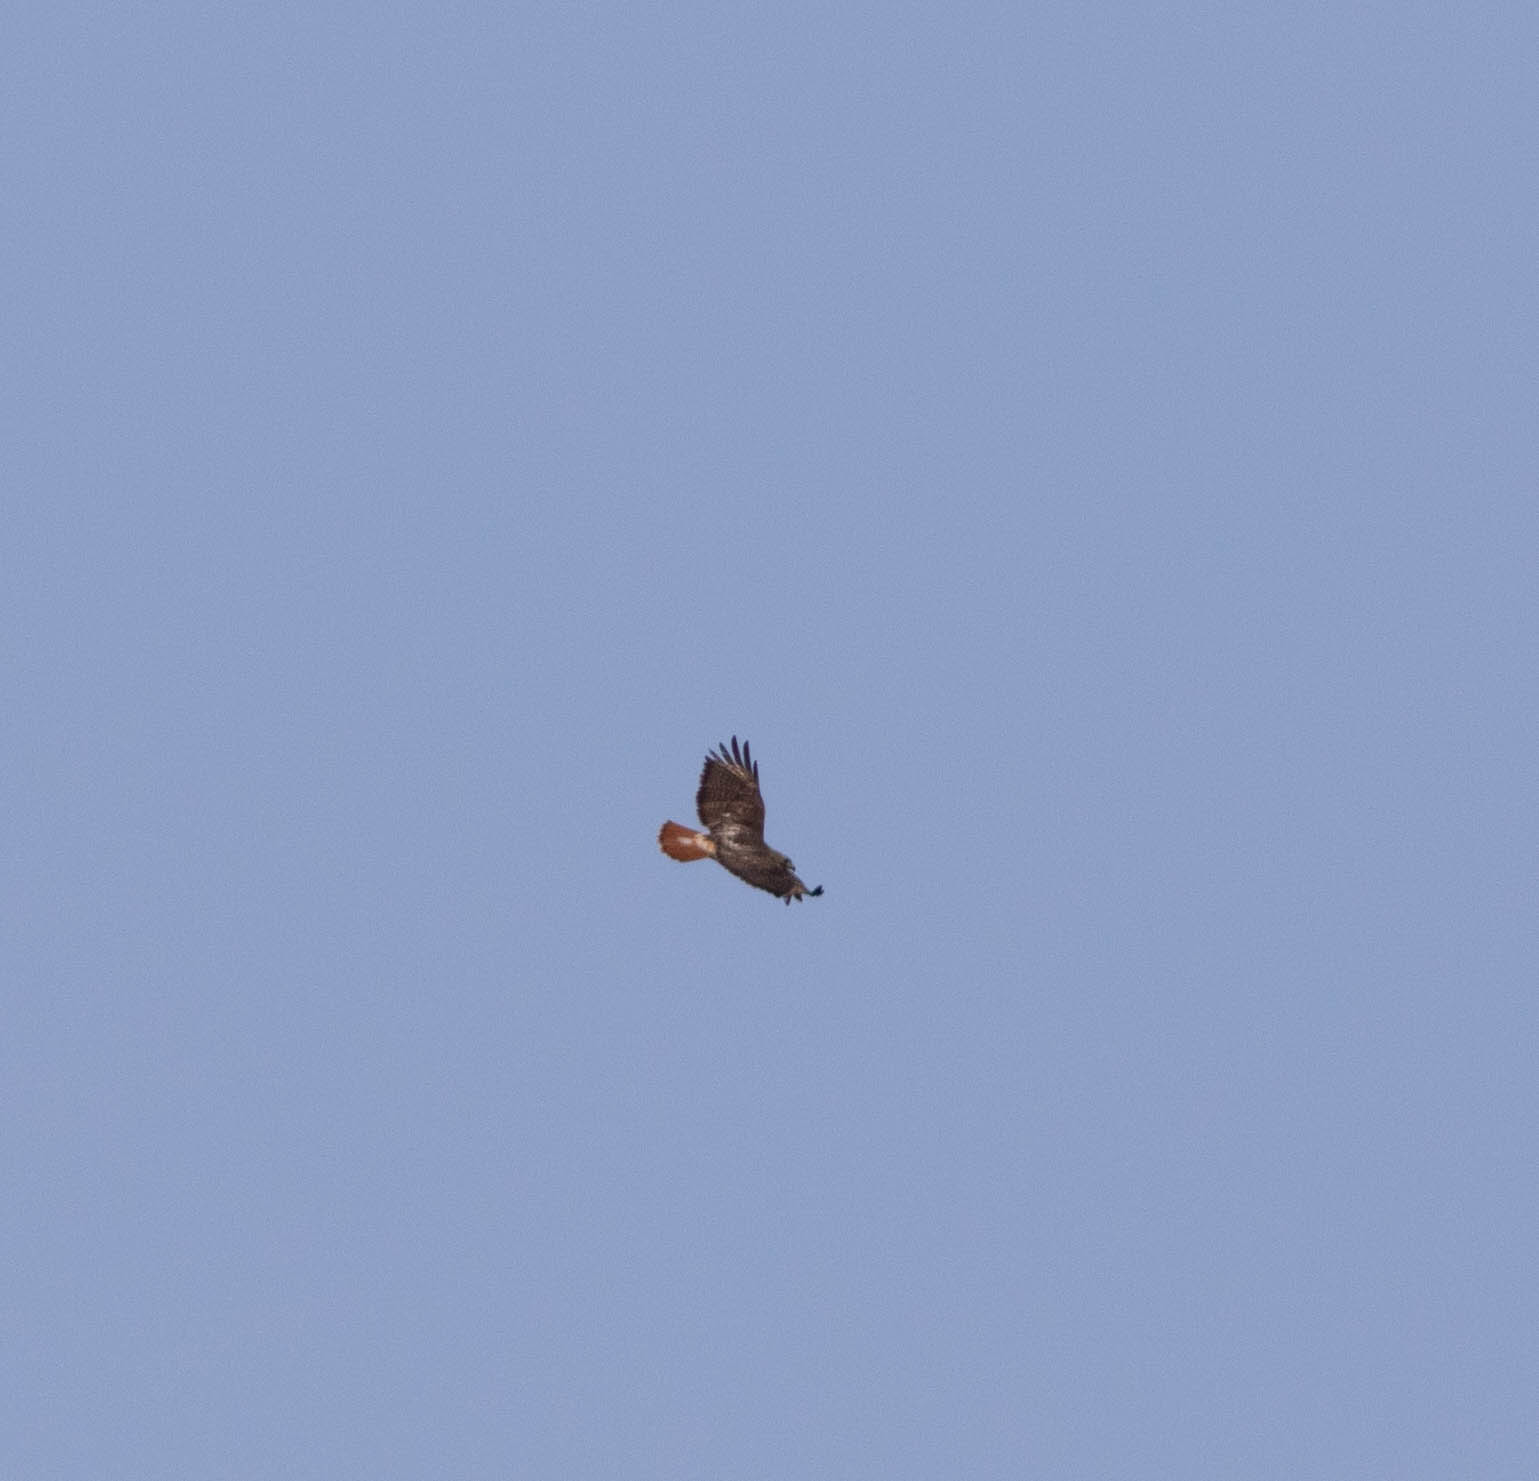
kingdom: Animalia
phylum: Chordata
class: Aves
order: Accipitriformes
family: Accipitridae
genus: Buteo
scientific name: Buteo jamaicensis
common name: Red-tailed hawk
